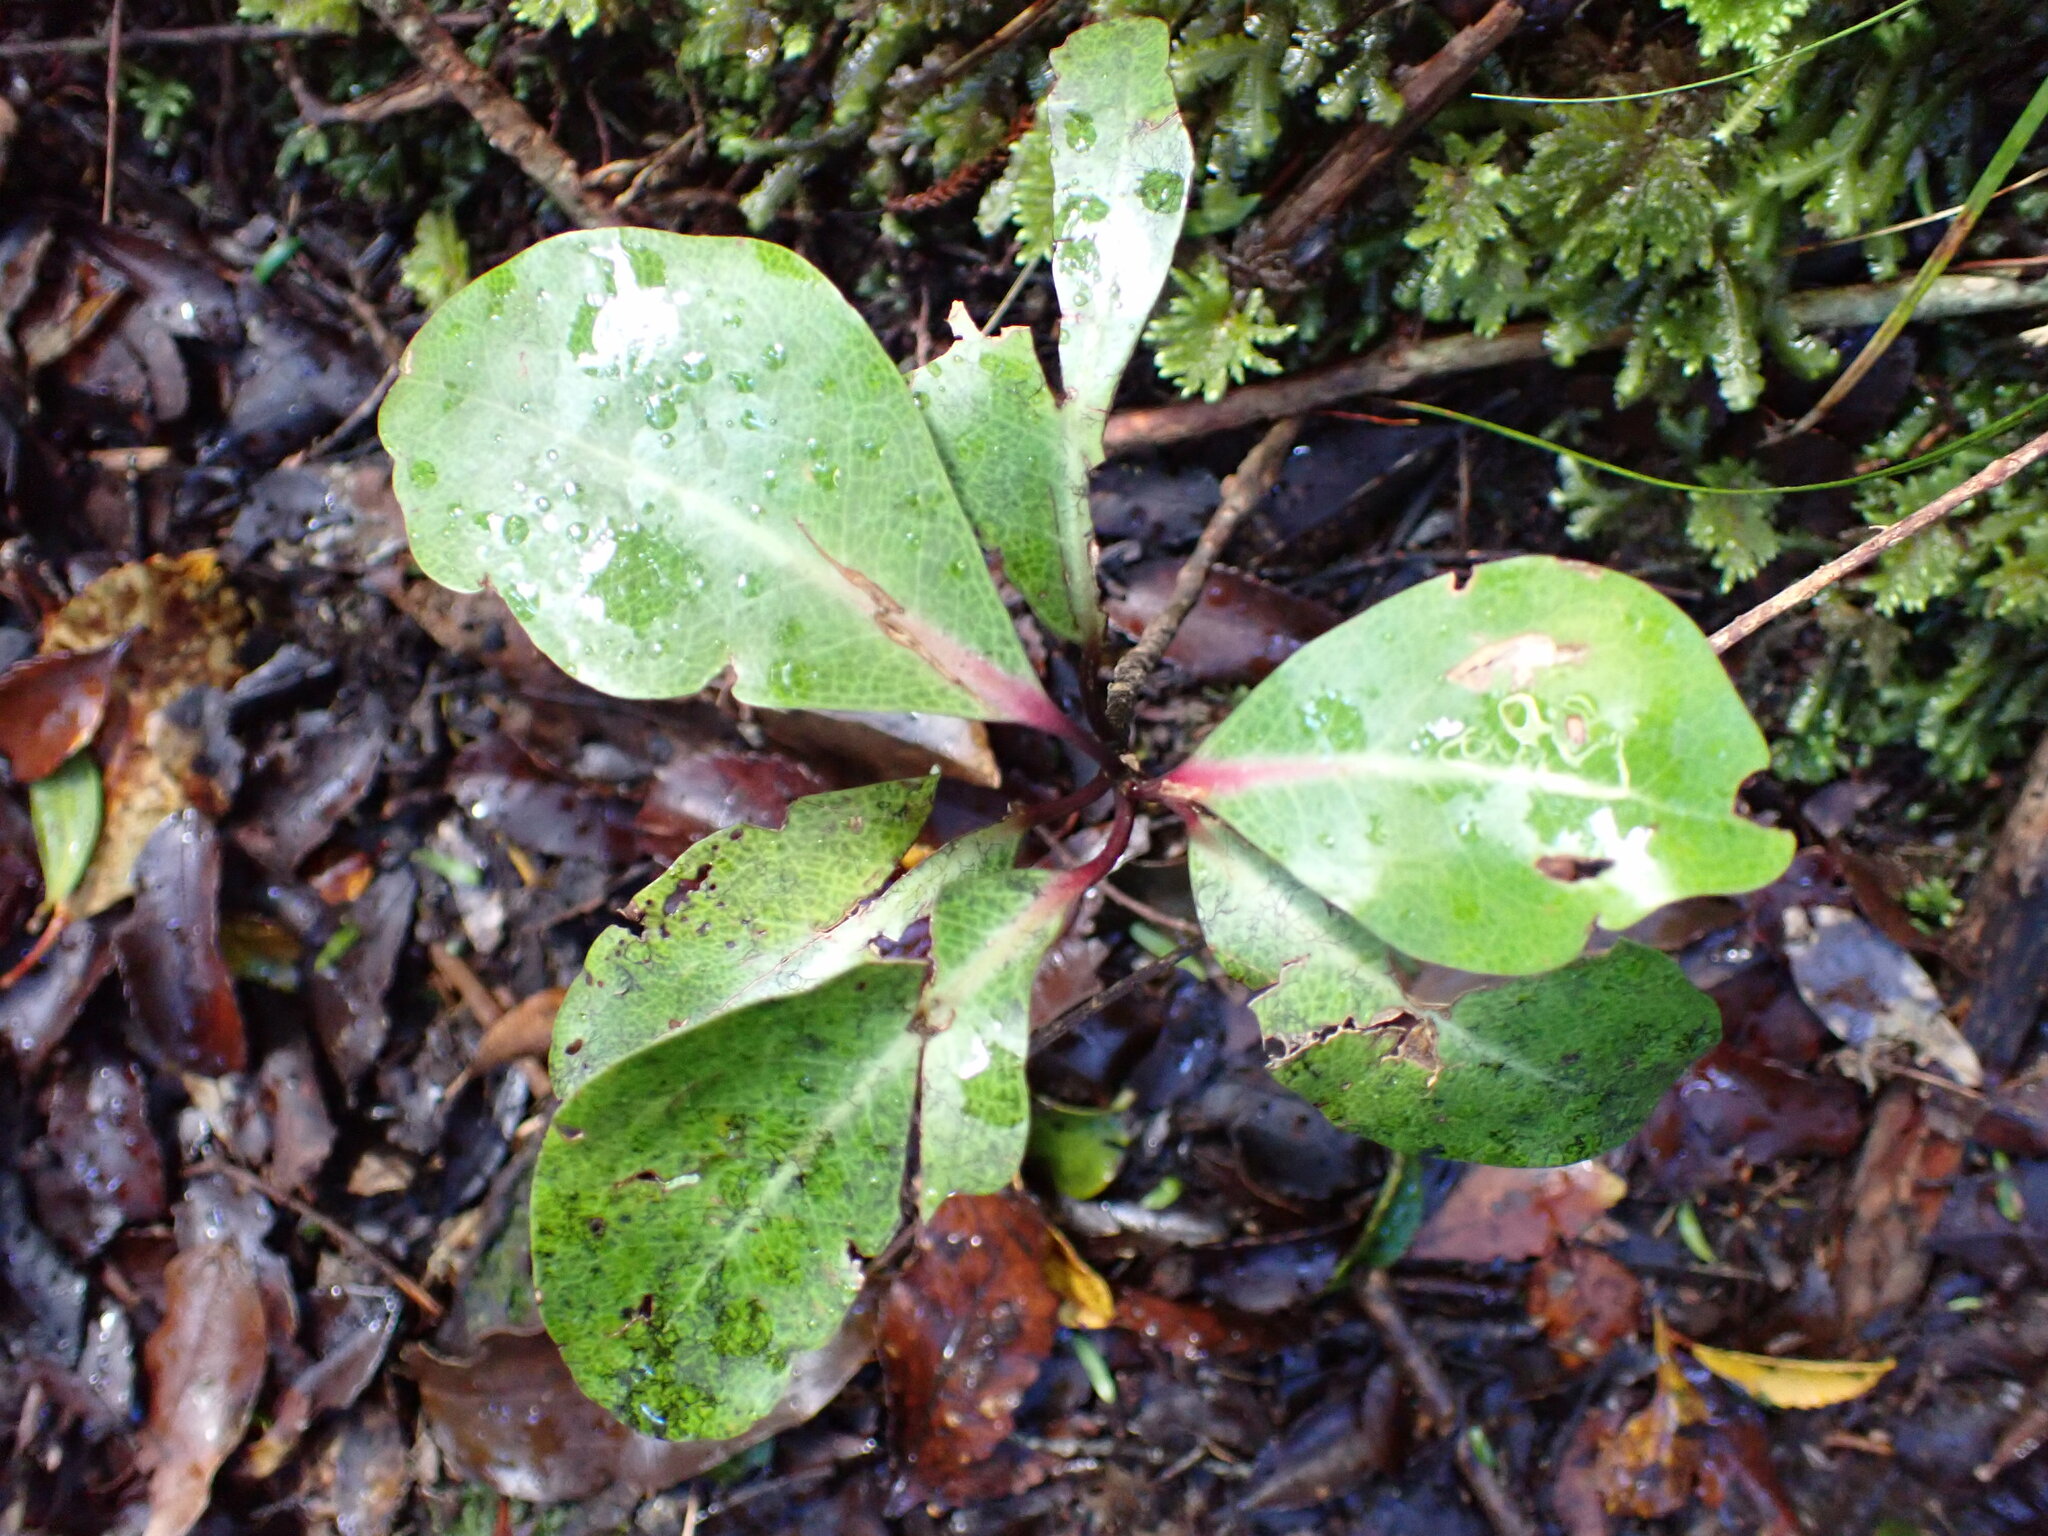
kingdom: Plantae
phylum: Tracheophyta
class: Magnoliopsida
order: Canellales
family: Winteraceae
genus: Pseudowintera
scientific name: Pseudowintera axillaris
